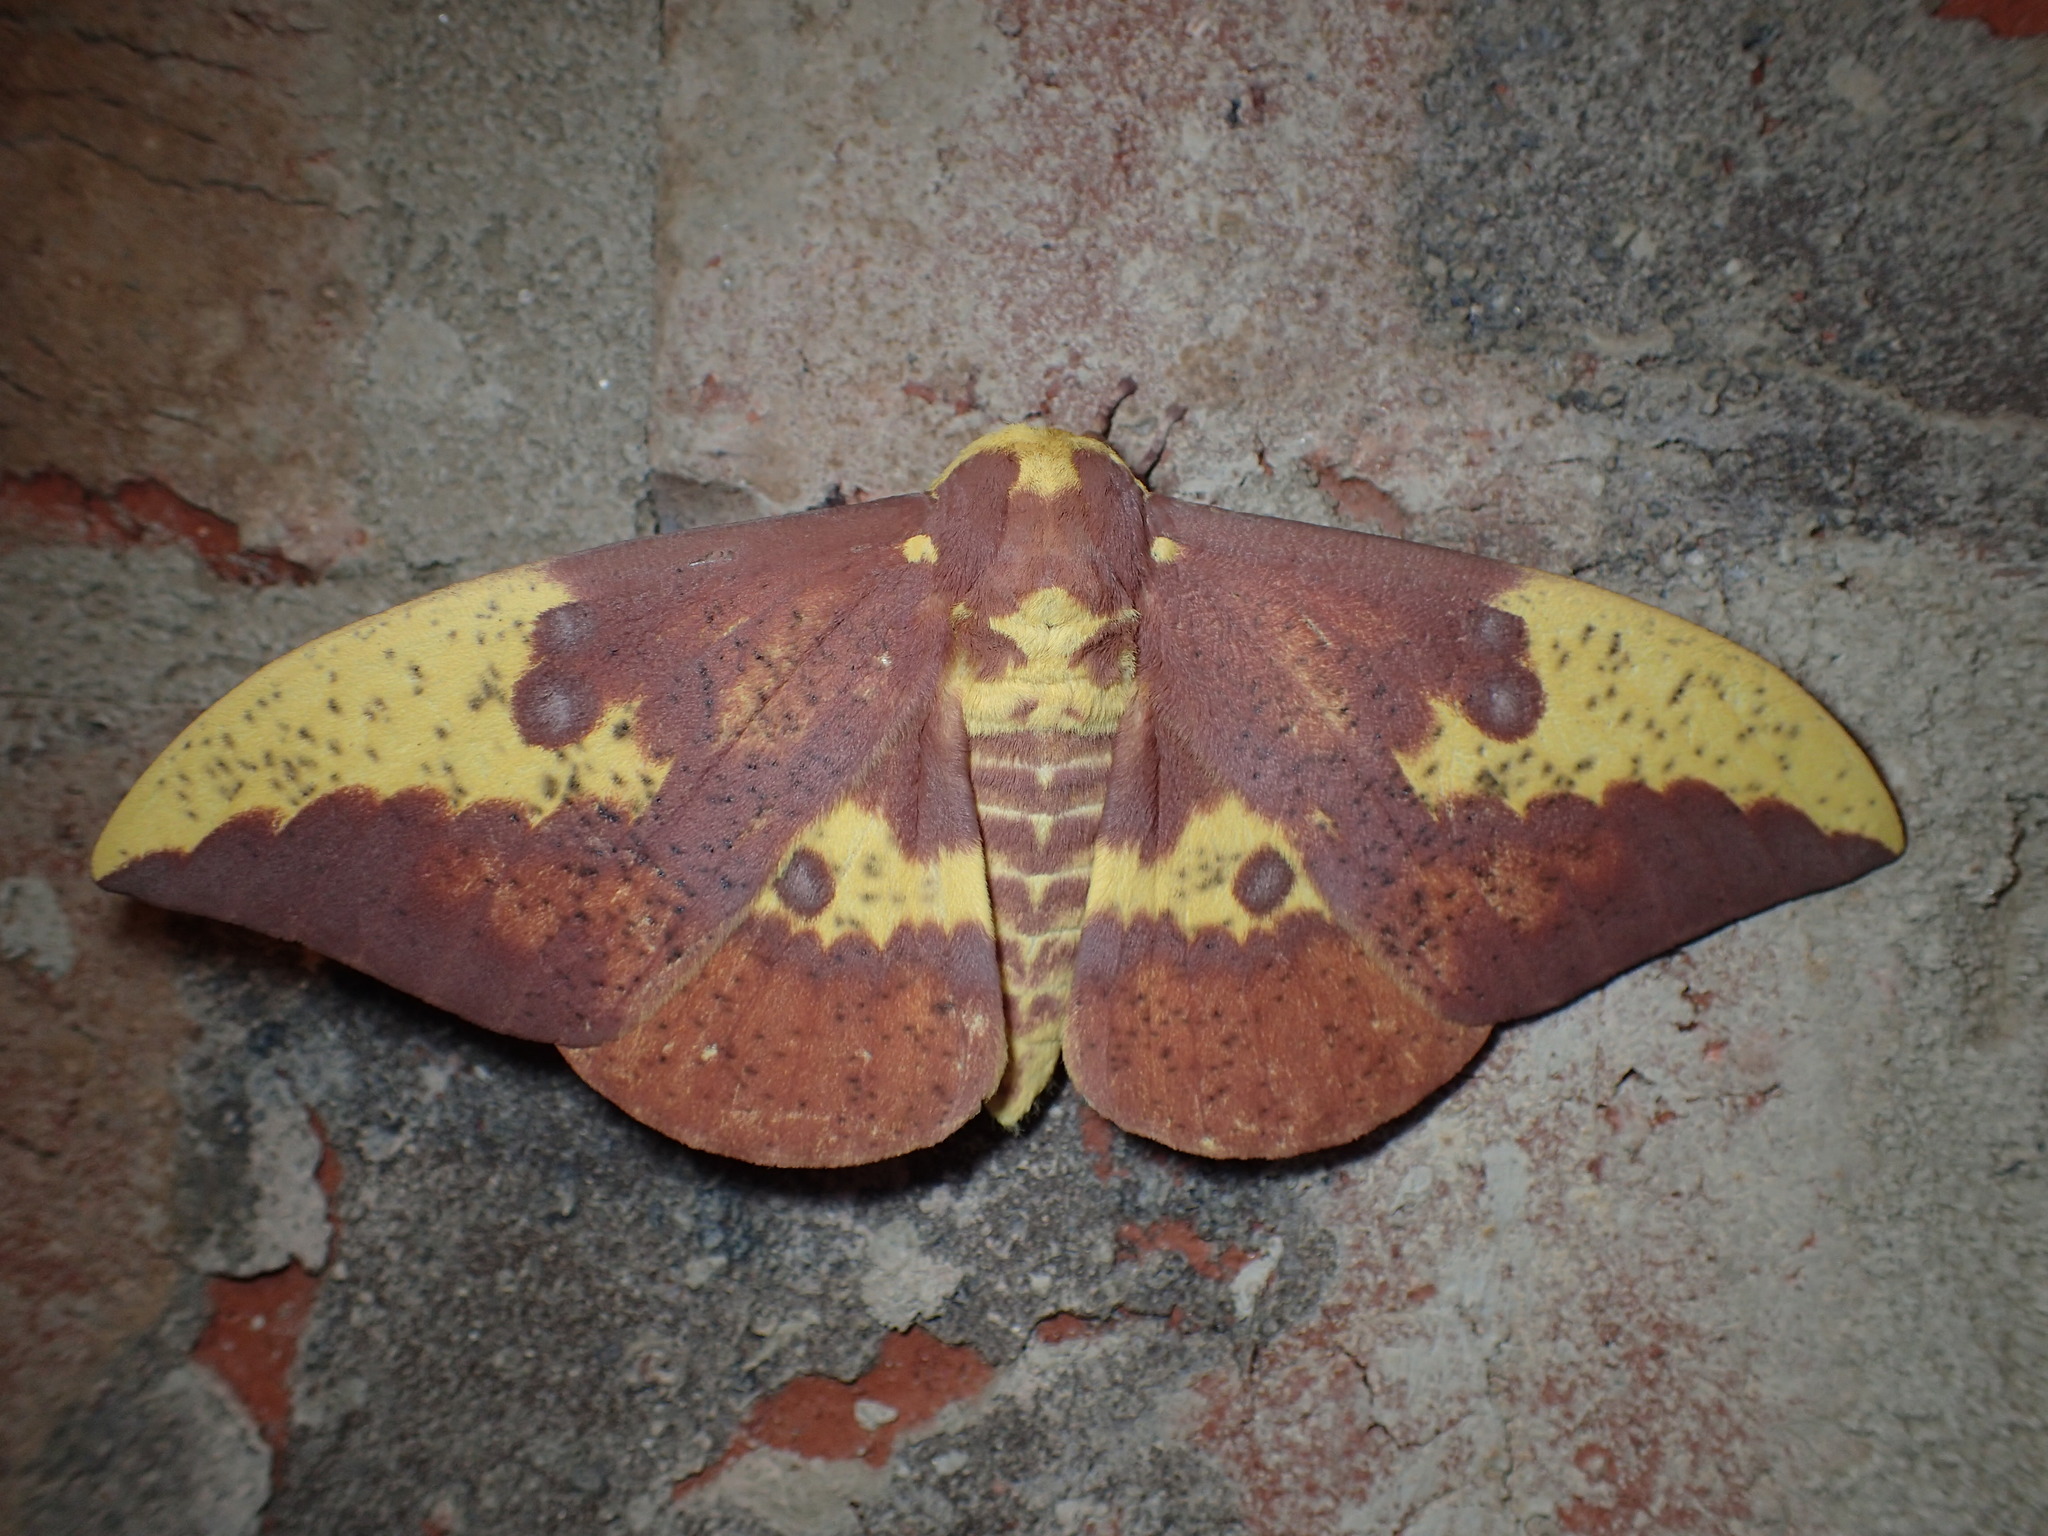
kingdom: Animalia
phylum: Arthropoda
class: Insecta
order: Lepidoptera
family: Saturniidae
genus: Eacles
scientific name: Eacles imperialis
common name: Imperial moth
